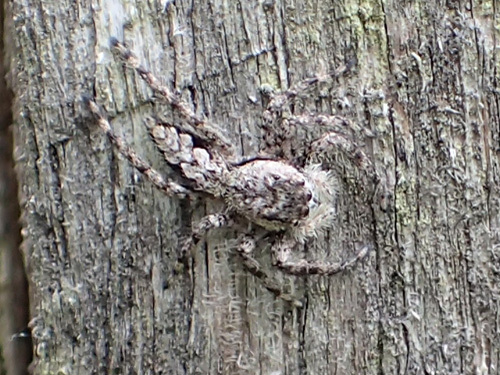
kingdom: Animalia
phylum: Arthropoda
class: Arachnida
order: Araneae
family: Salticidae
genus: Platycryptus
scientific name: Platycryptus undatus
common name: Tan jumping spider
